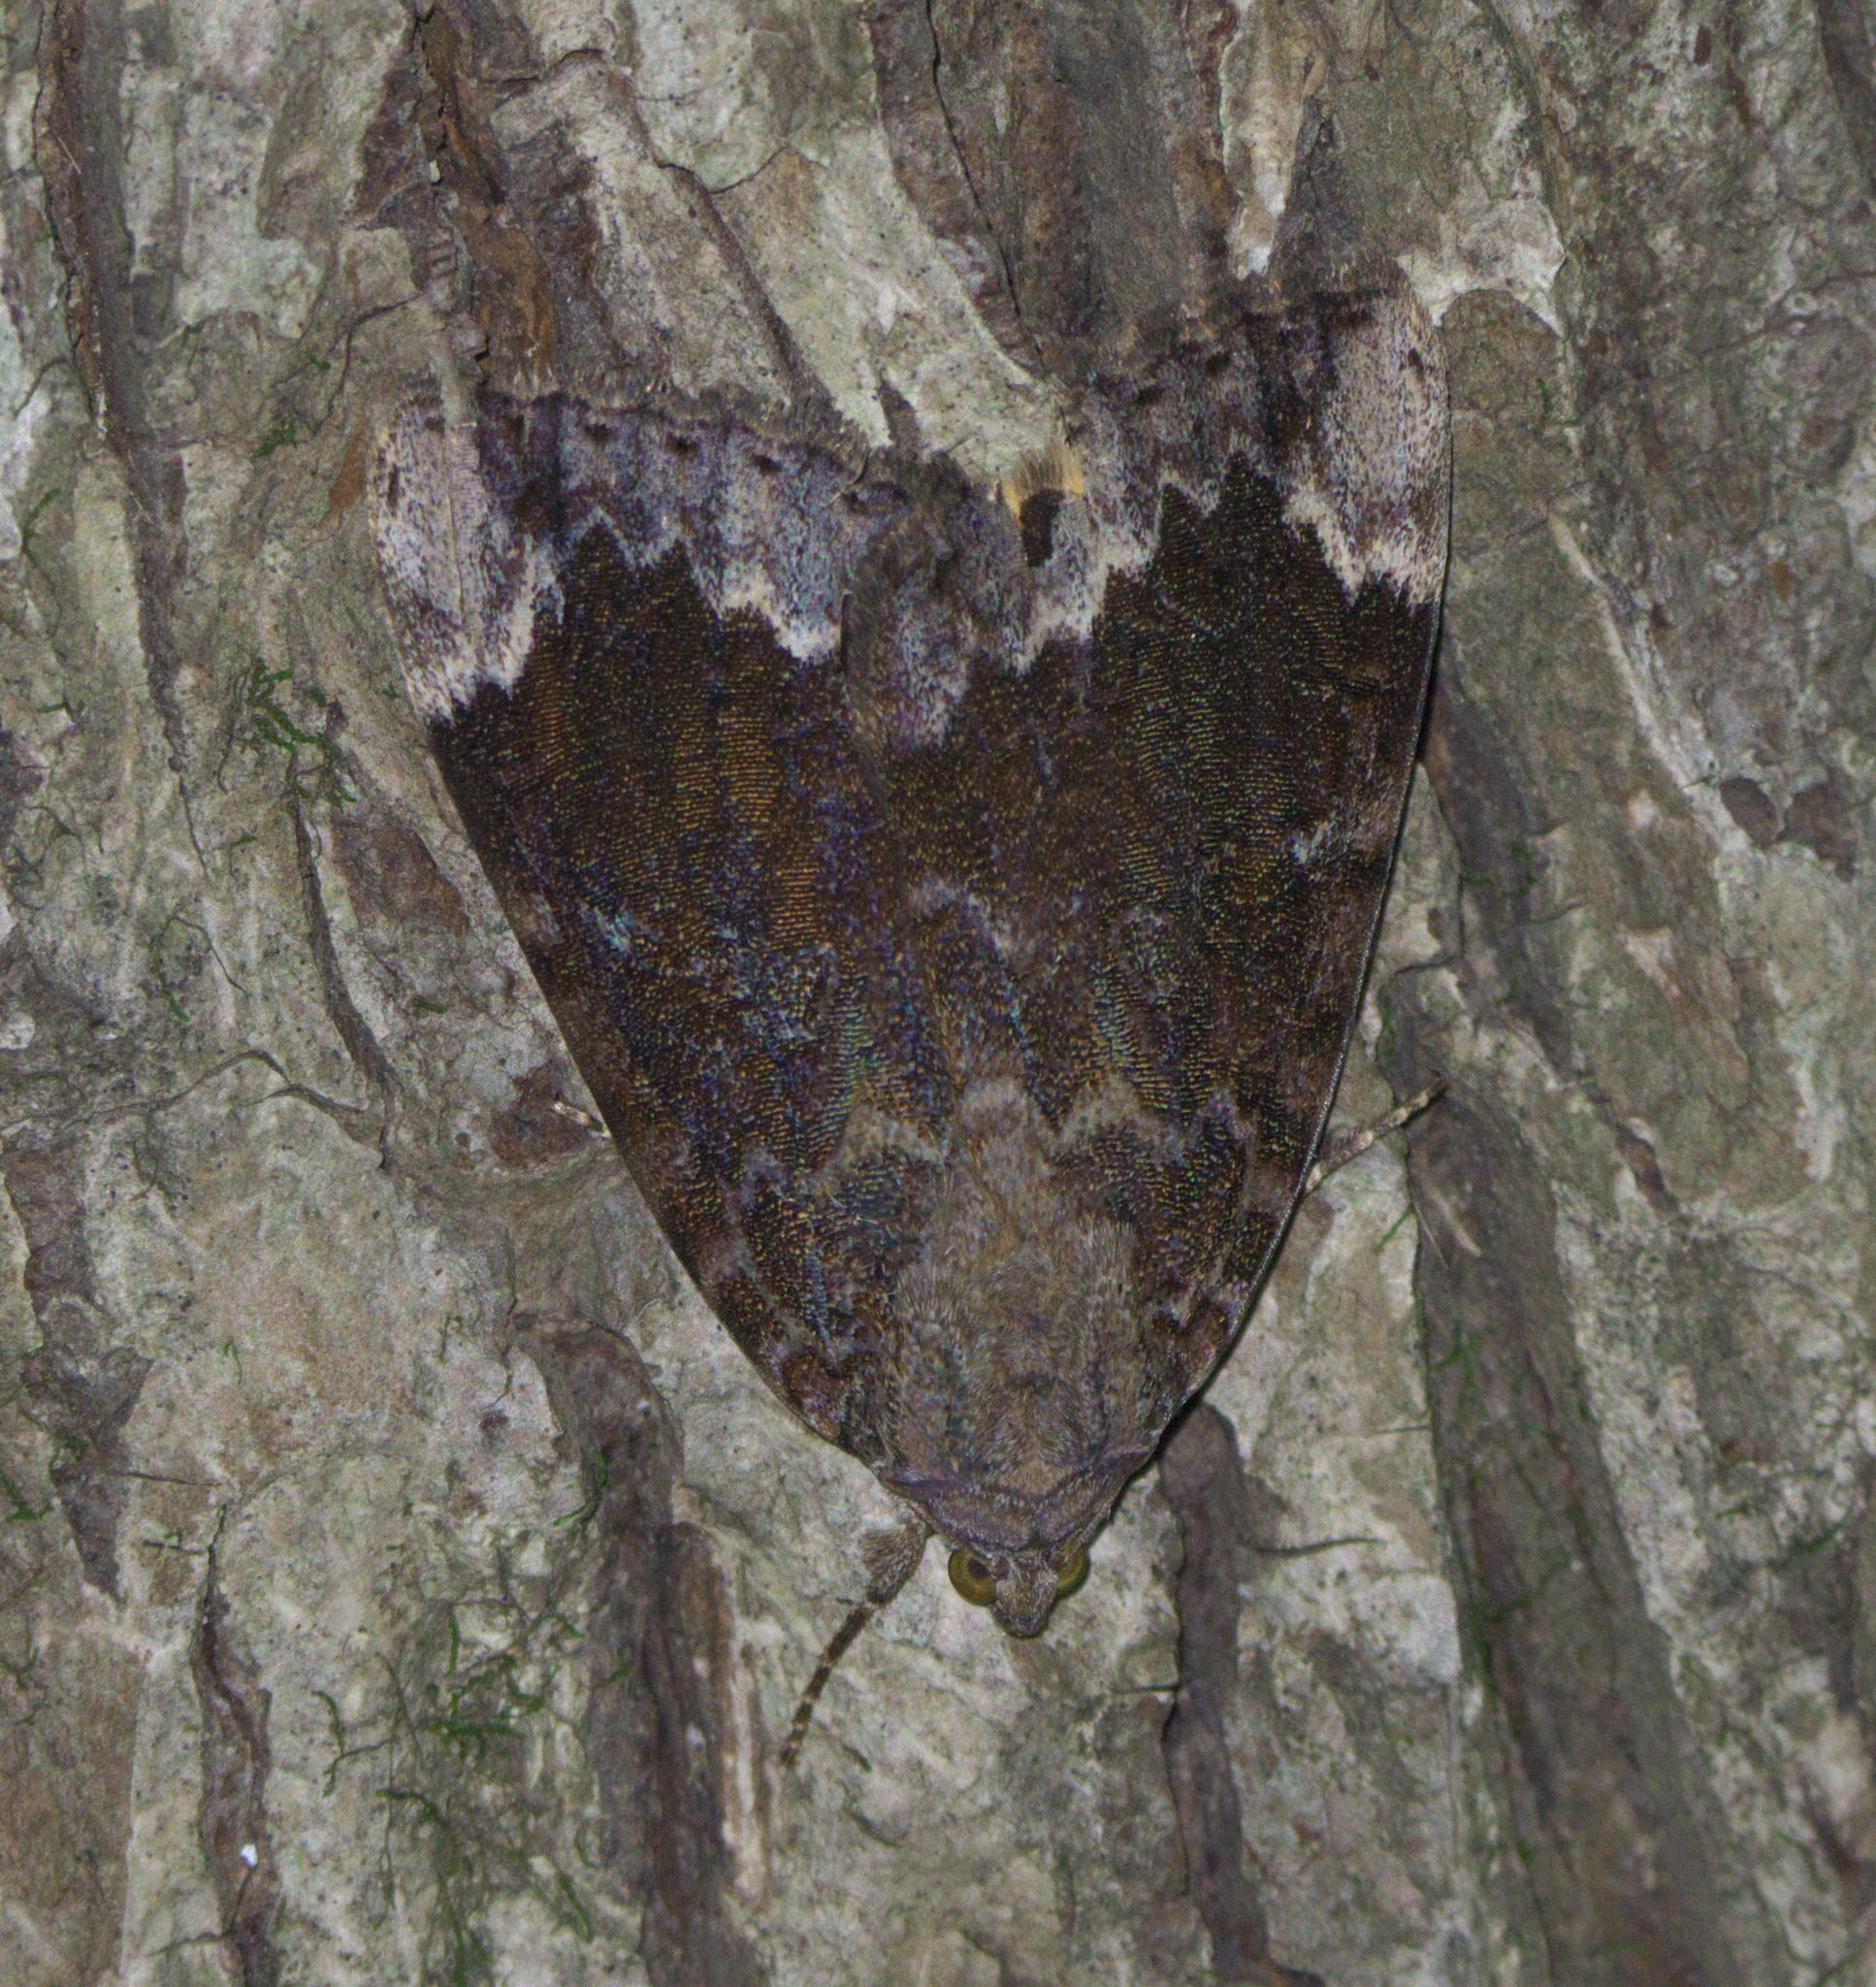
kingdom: Animalia
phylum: Arthropoda
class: Insecta
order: Lepidoptera
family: Erebidae
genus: Catocala
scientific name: Catocala innubens
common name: Betrothed underwing
